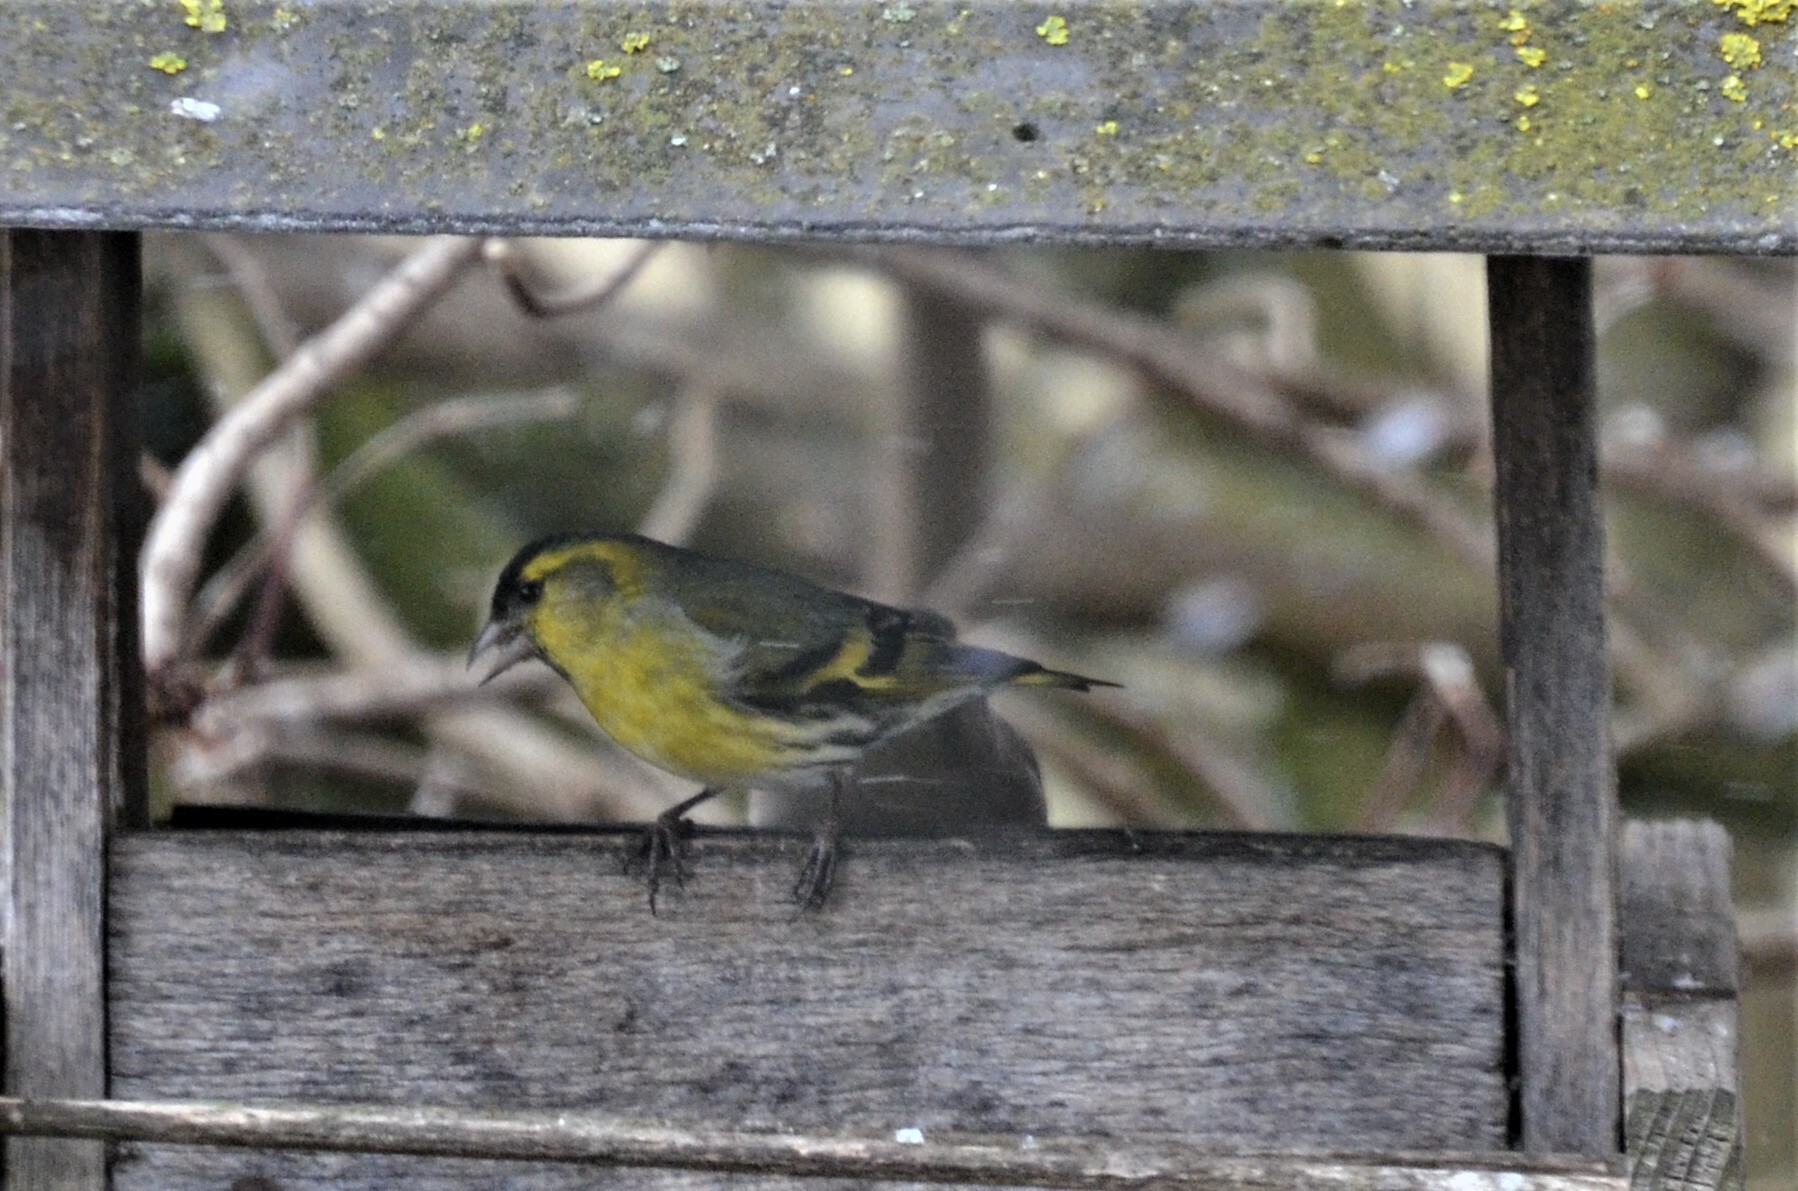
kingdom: Animalia
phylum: Chordata
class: Aves
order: Passeriformes
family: Fringillidae
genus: Spinus
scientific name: Spinus spinus
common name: Eurasian siskin
